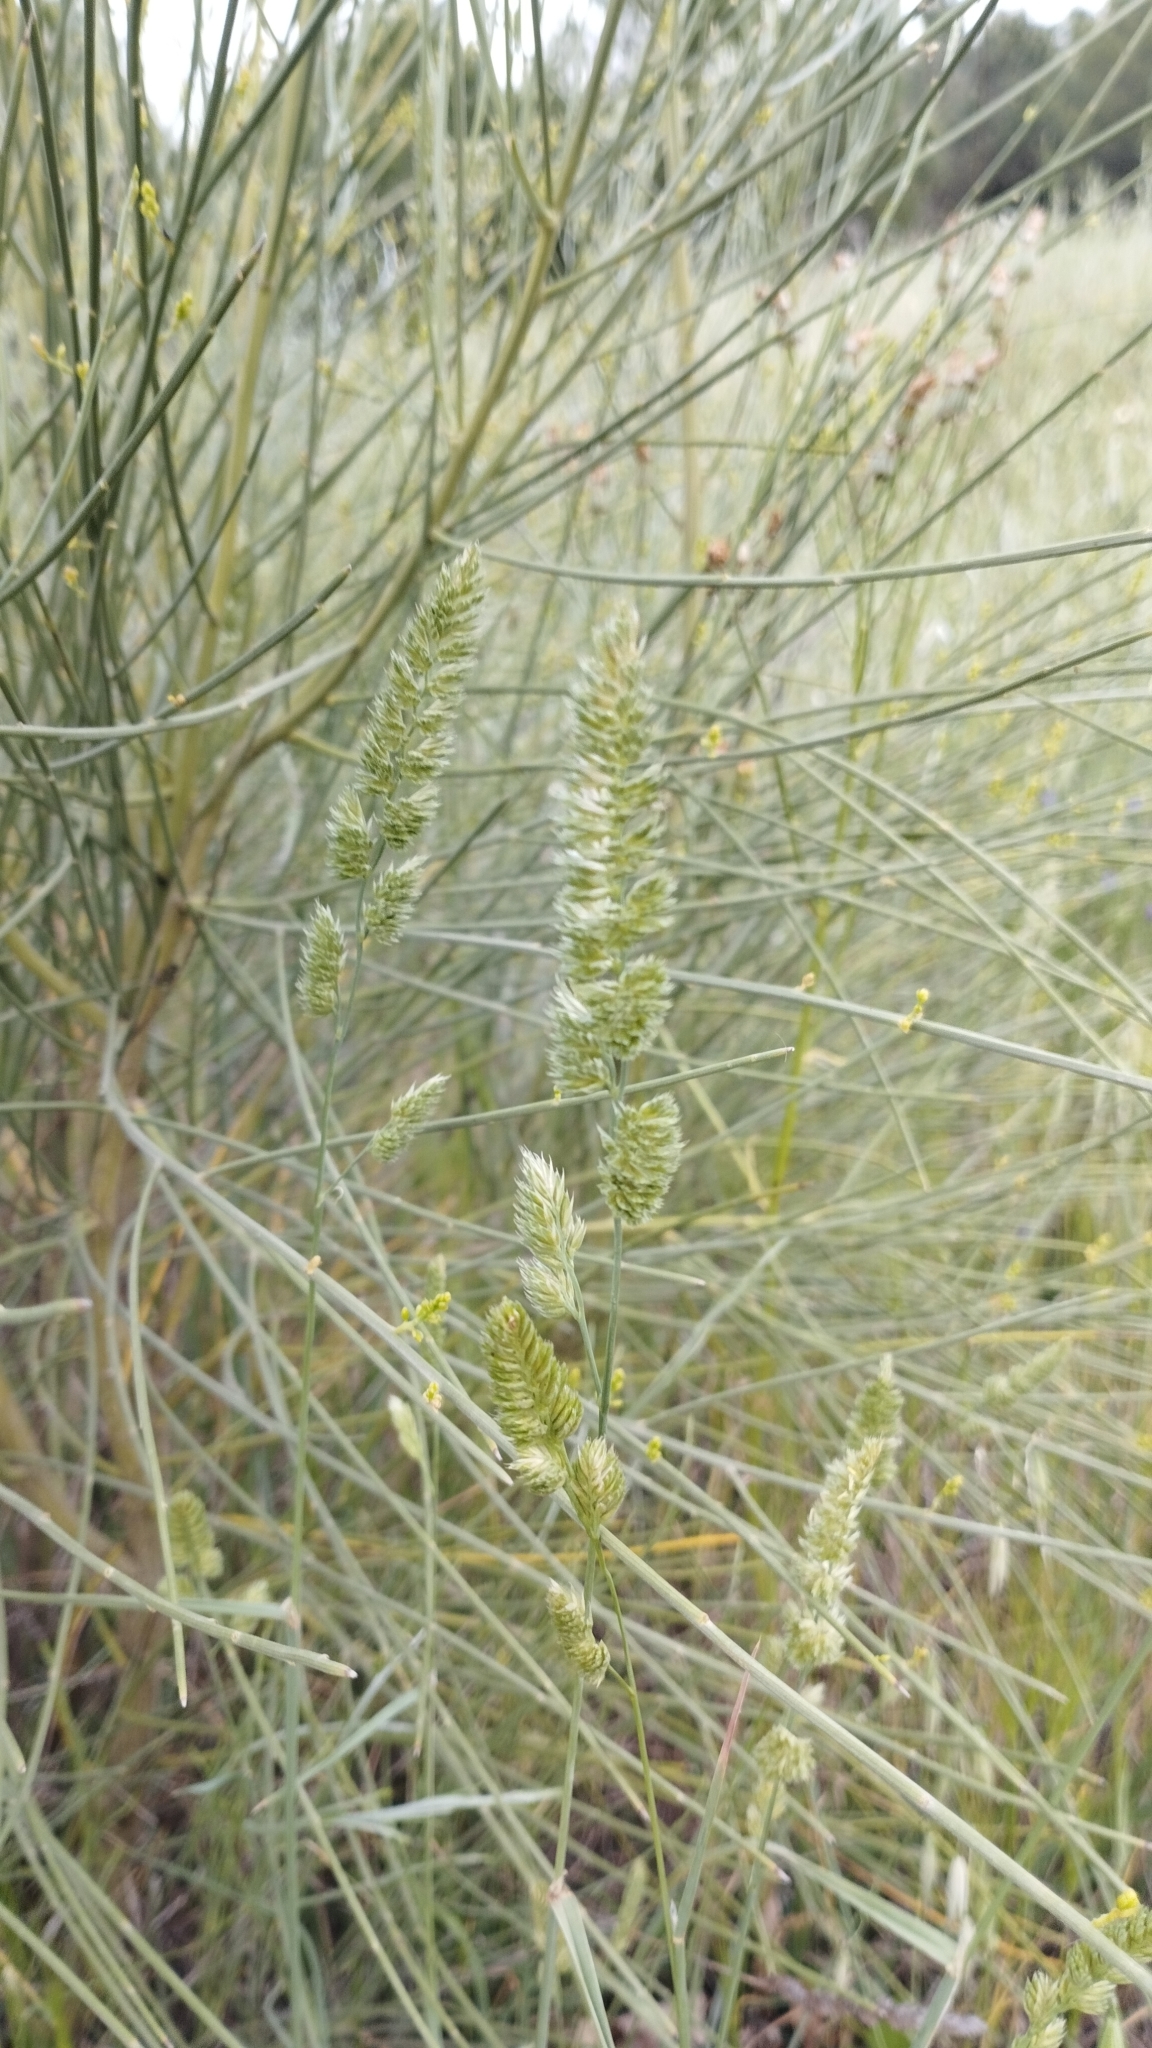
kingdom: Plantae
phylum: Tracheophyta
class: Liliopsida
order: Poales
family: Poaceae
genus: Dactylis
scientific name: Dactylis glomerata
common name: Orchardgrass
